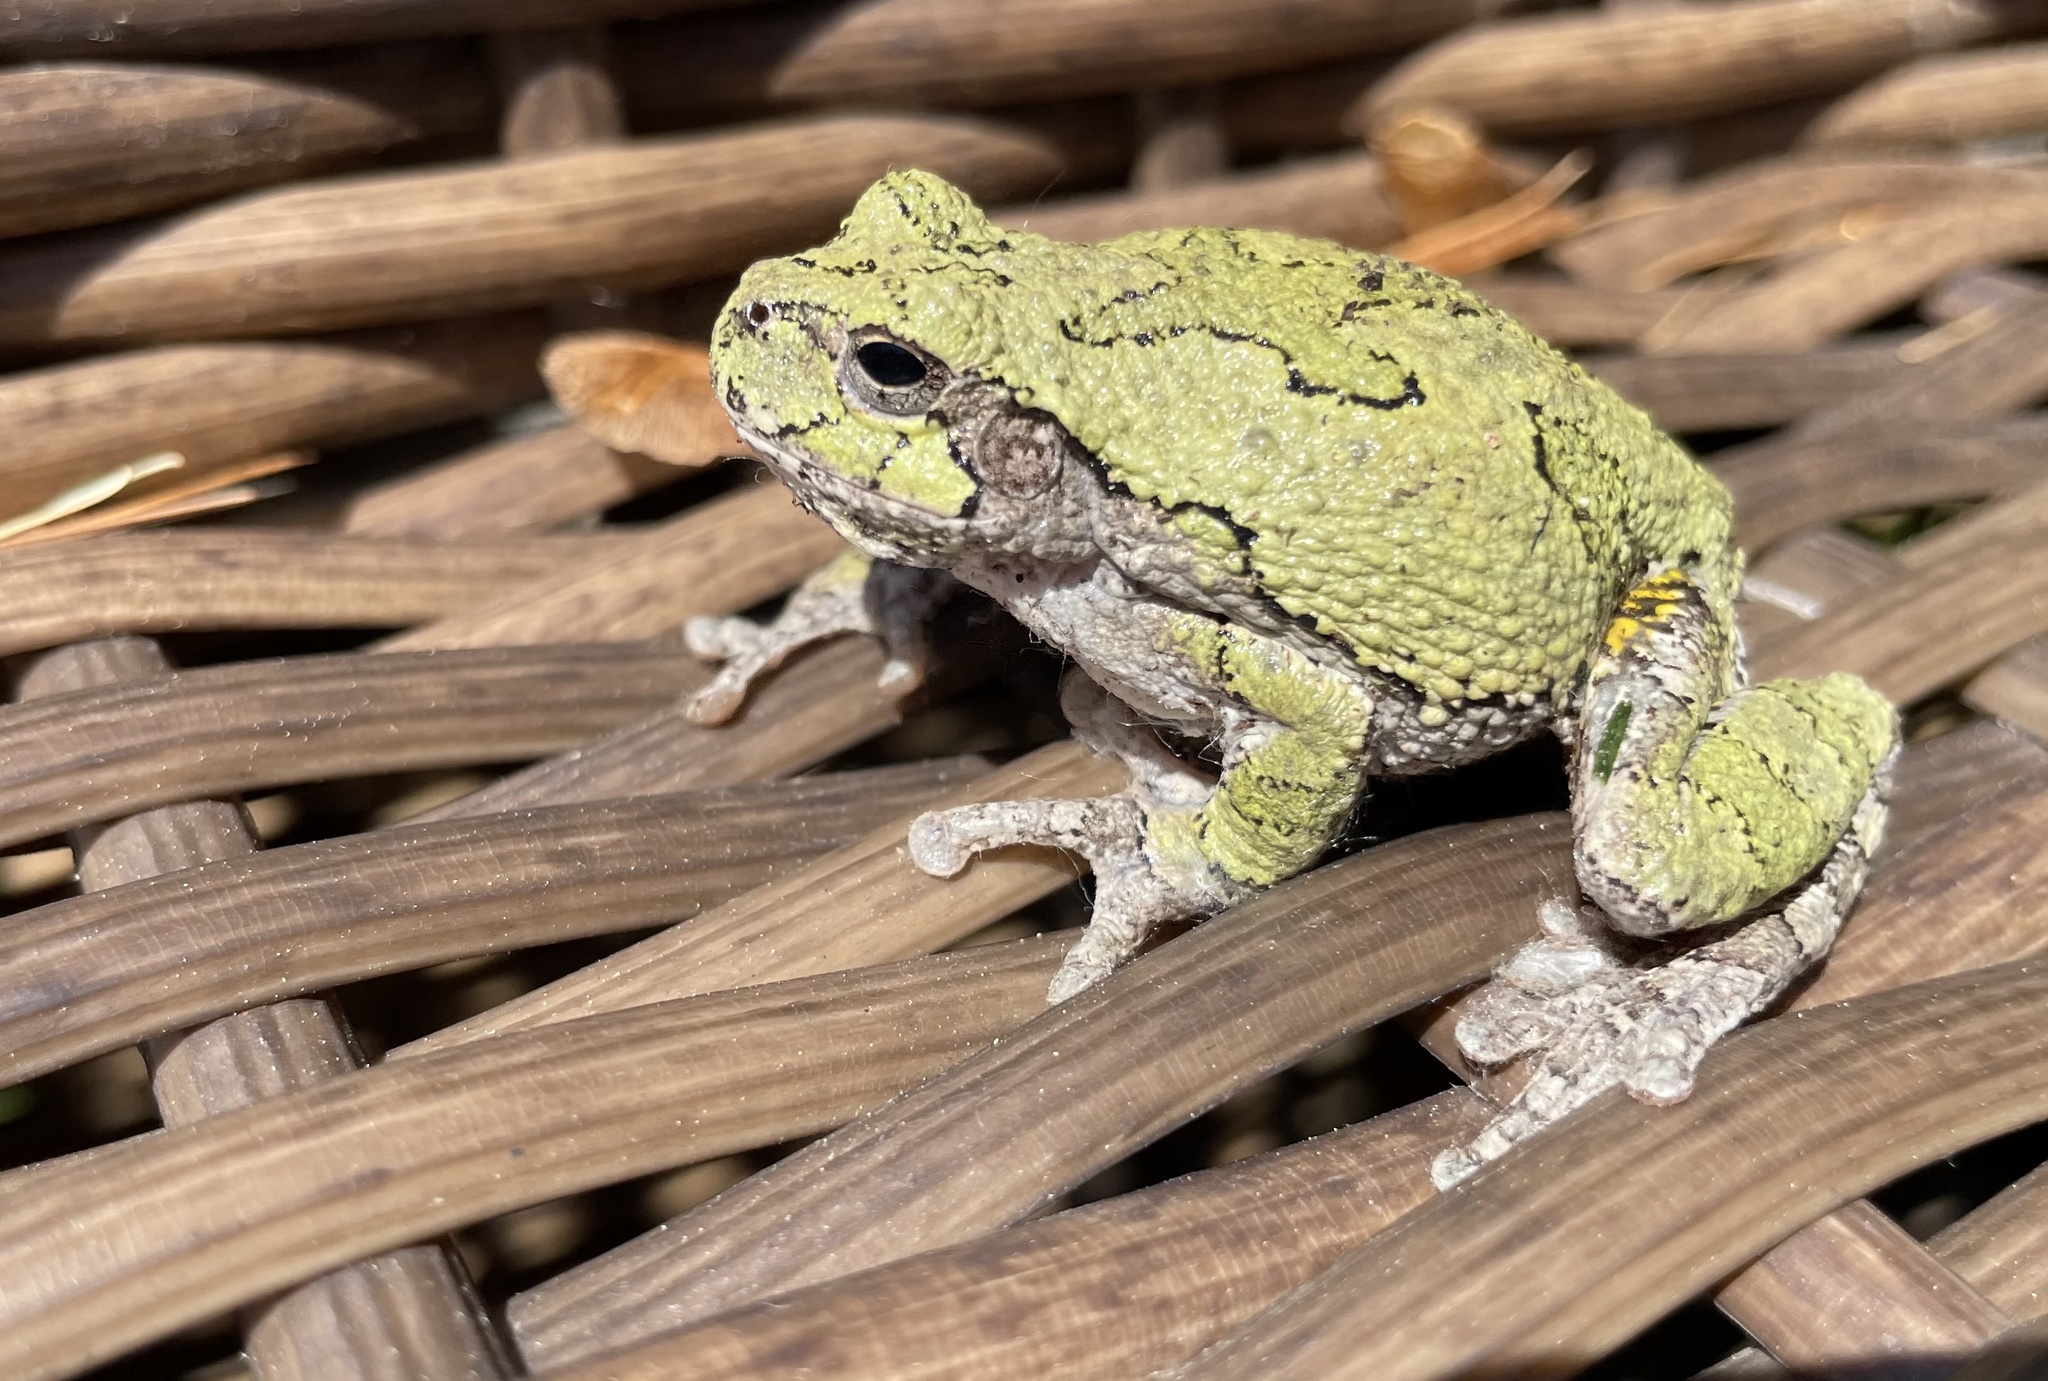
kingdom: Animalia
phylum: Chordata
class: Amphibia
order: Anura
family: Hylidae
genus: Hyla
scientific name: Hyla
